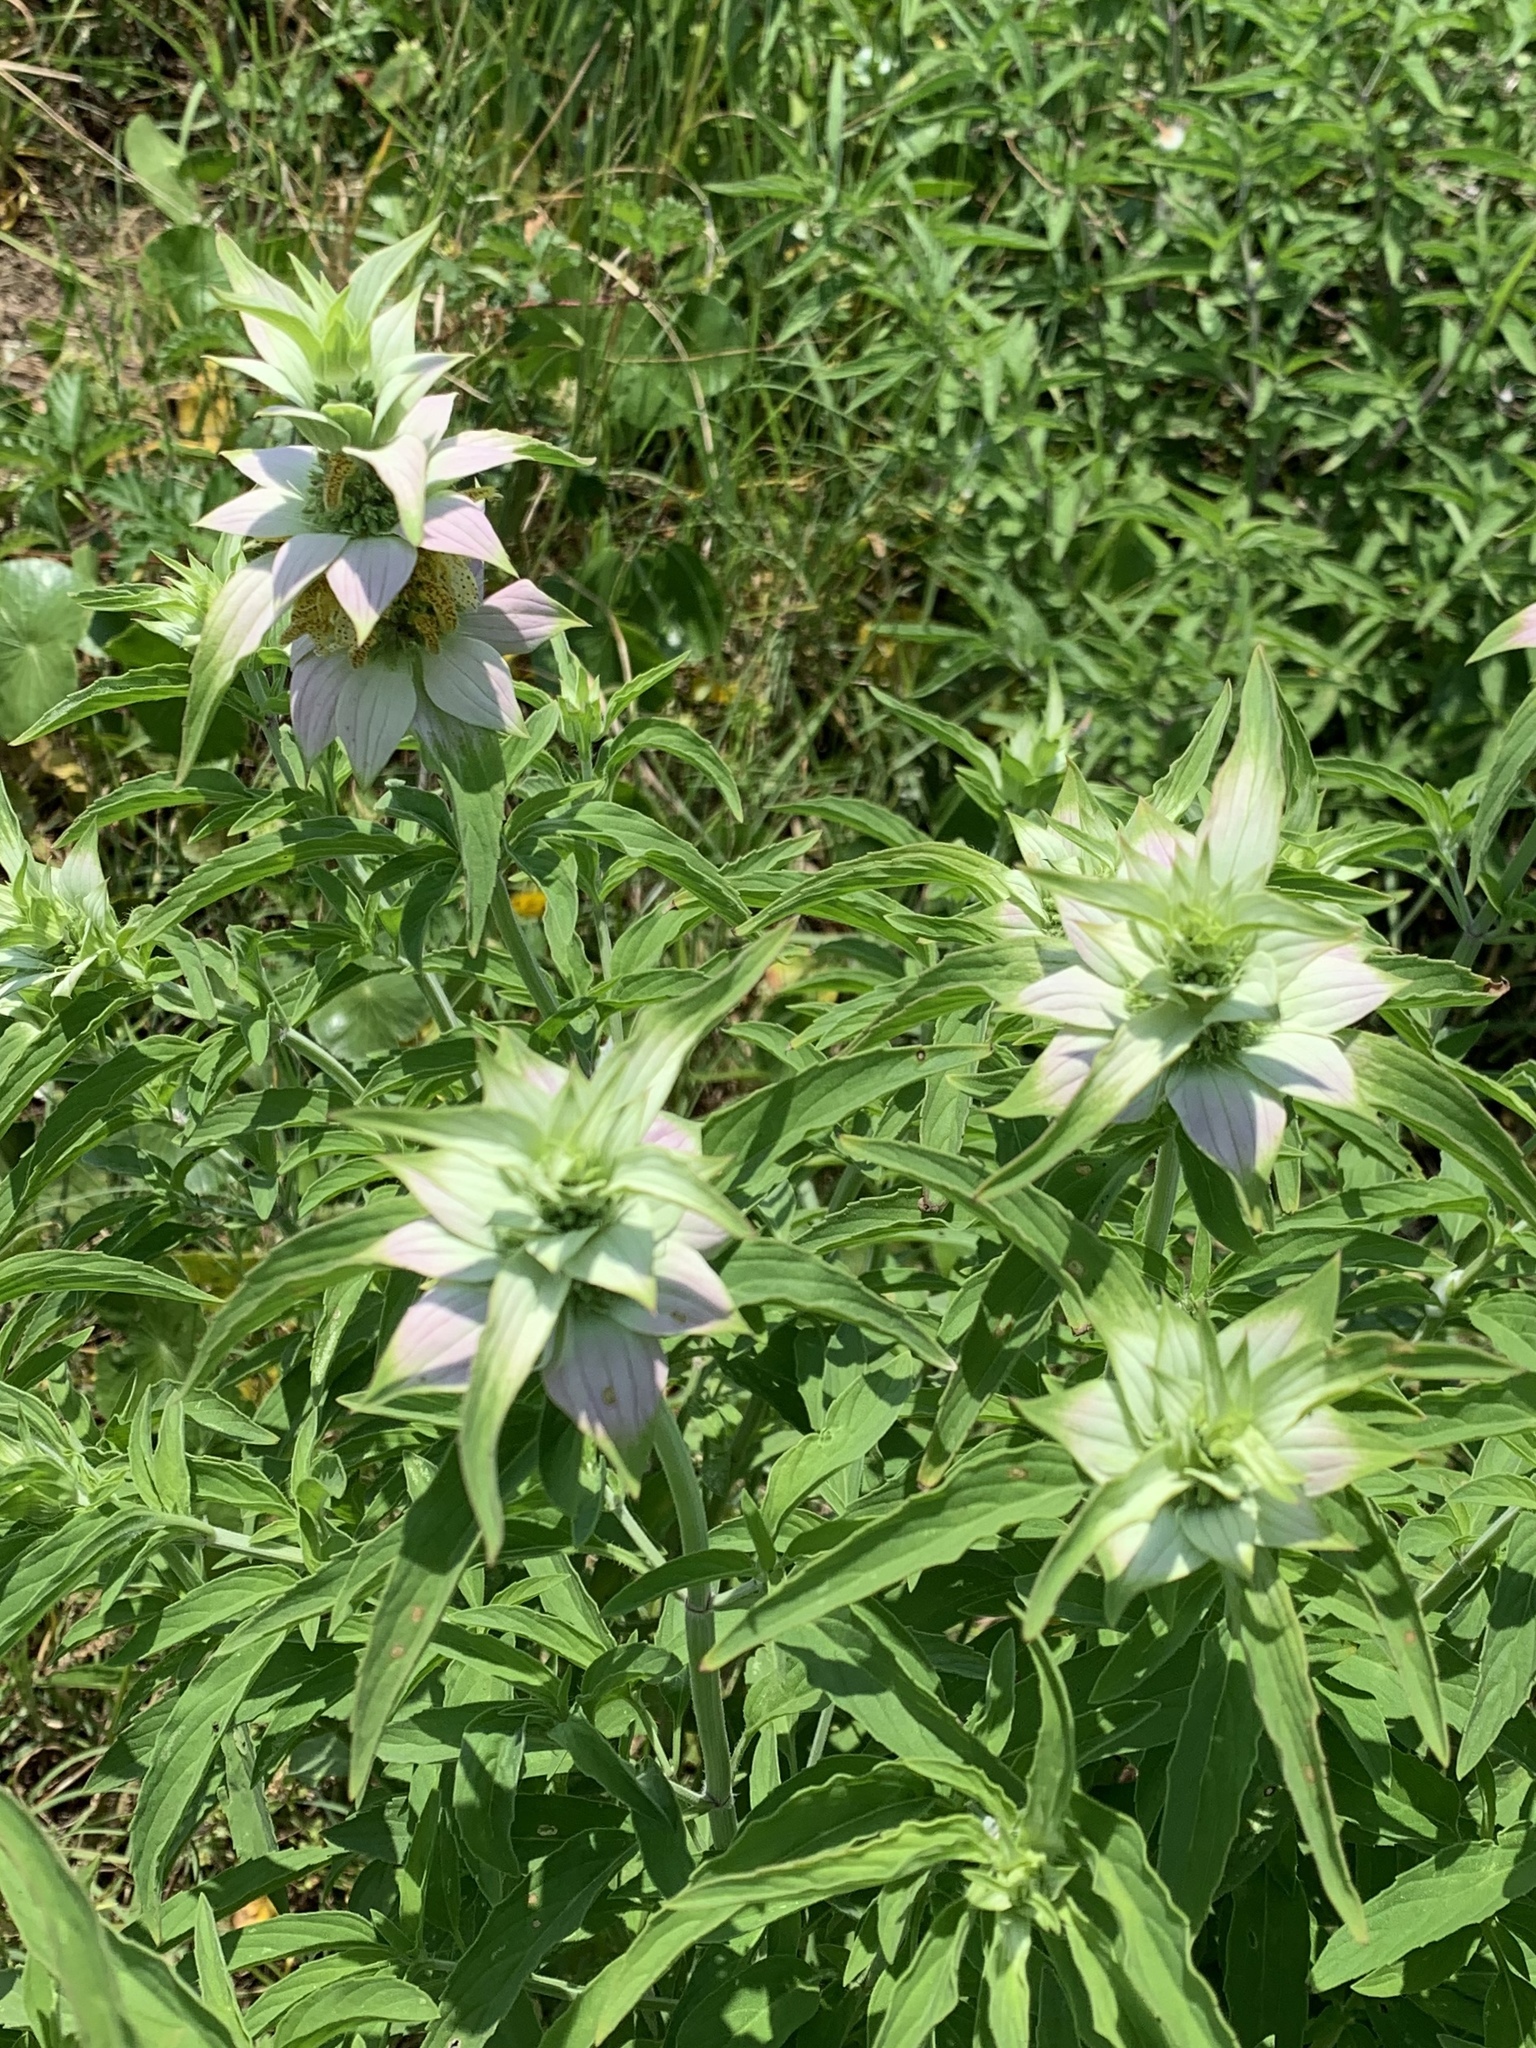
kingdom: Plantae
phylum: Tracheophyta
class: Magnoliopsida
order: Lamiales
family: Lamiaceae
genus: Monarda
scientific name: Monarda punctata
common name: Dotted monarda
